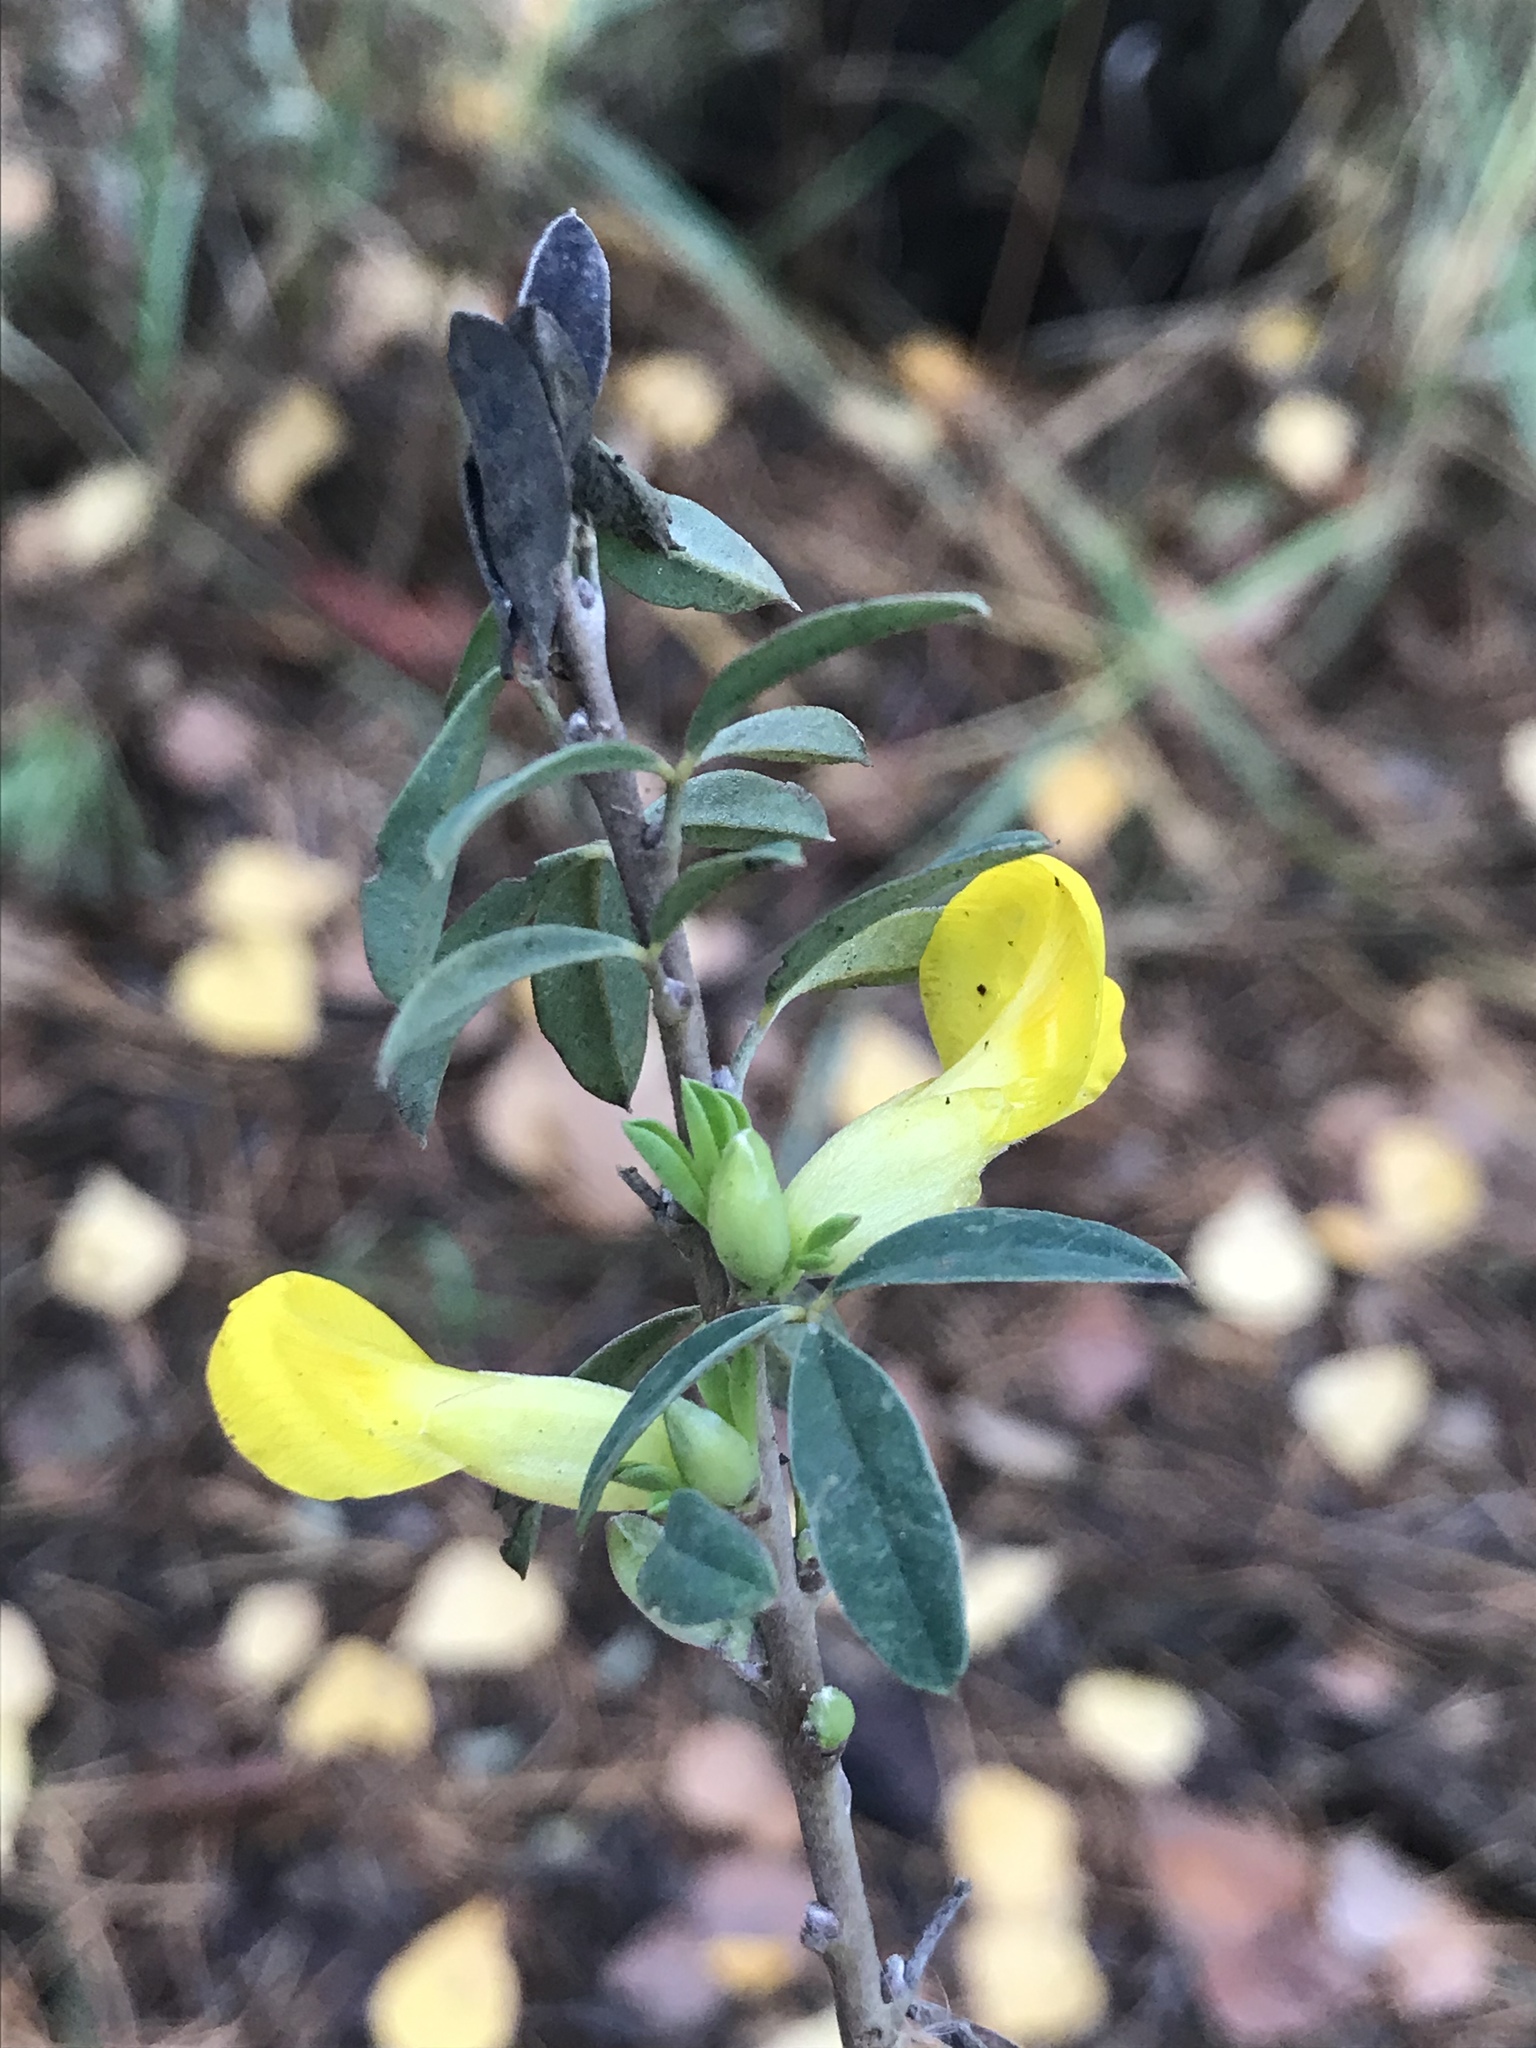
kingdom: Plantae
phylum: Tracheophyta
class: Magnoliopsida
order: Fabales
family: Fabaceae
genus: Chamaecytisus
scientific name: Chamaecytisus ruthenicus
